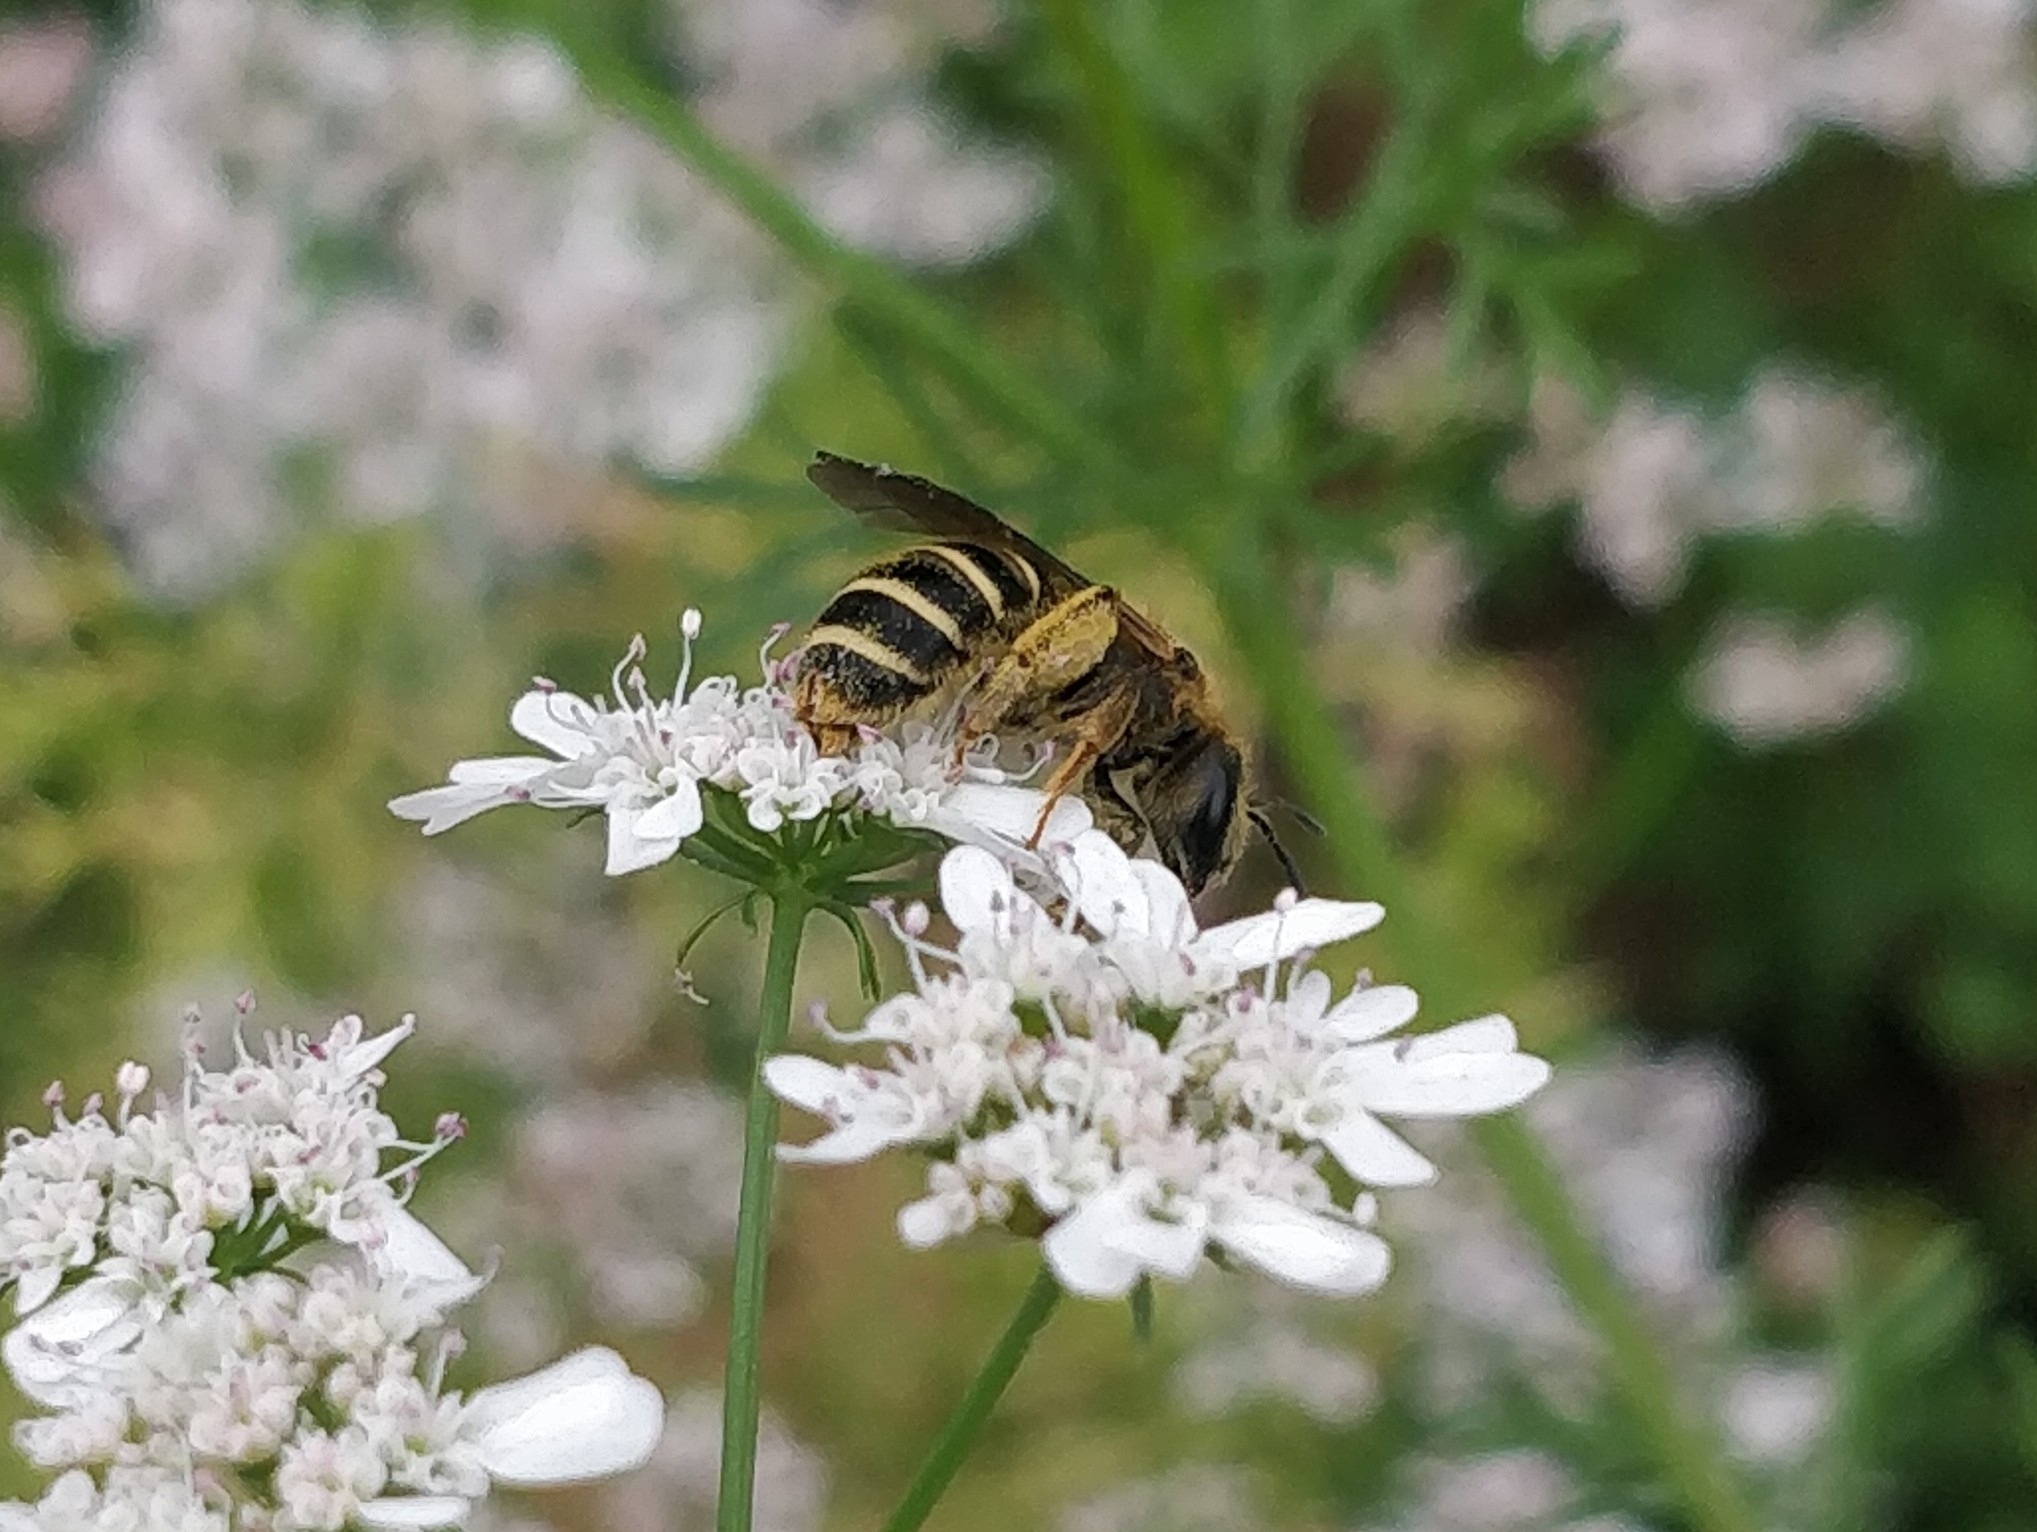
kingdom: Animalia
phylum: Arthropoda
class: Insecta
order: Hymenoptera
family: Halictidae
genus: Halictus
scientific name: Halictus fulvipes
